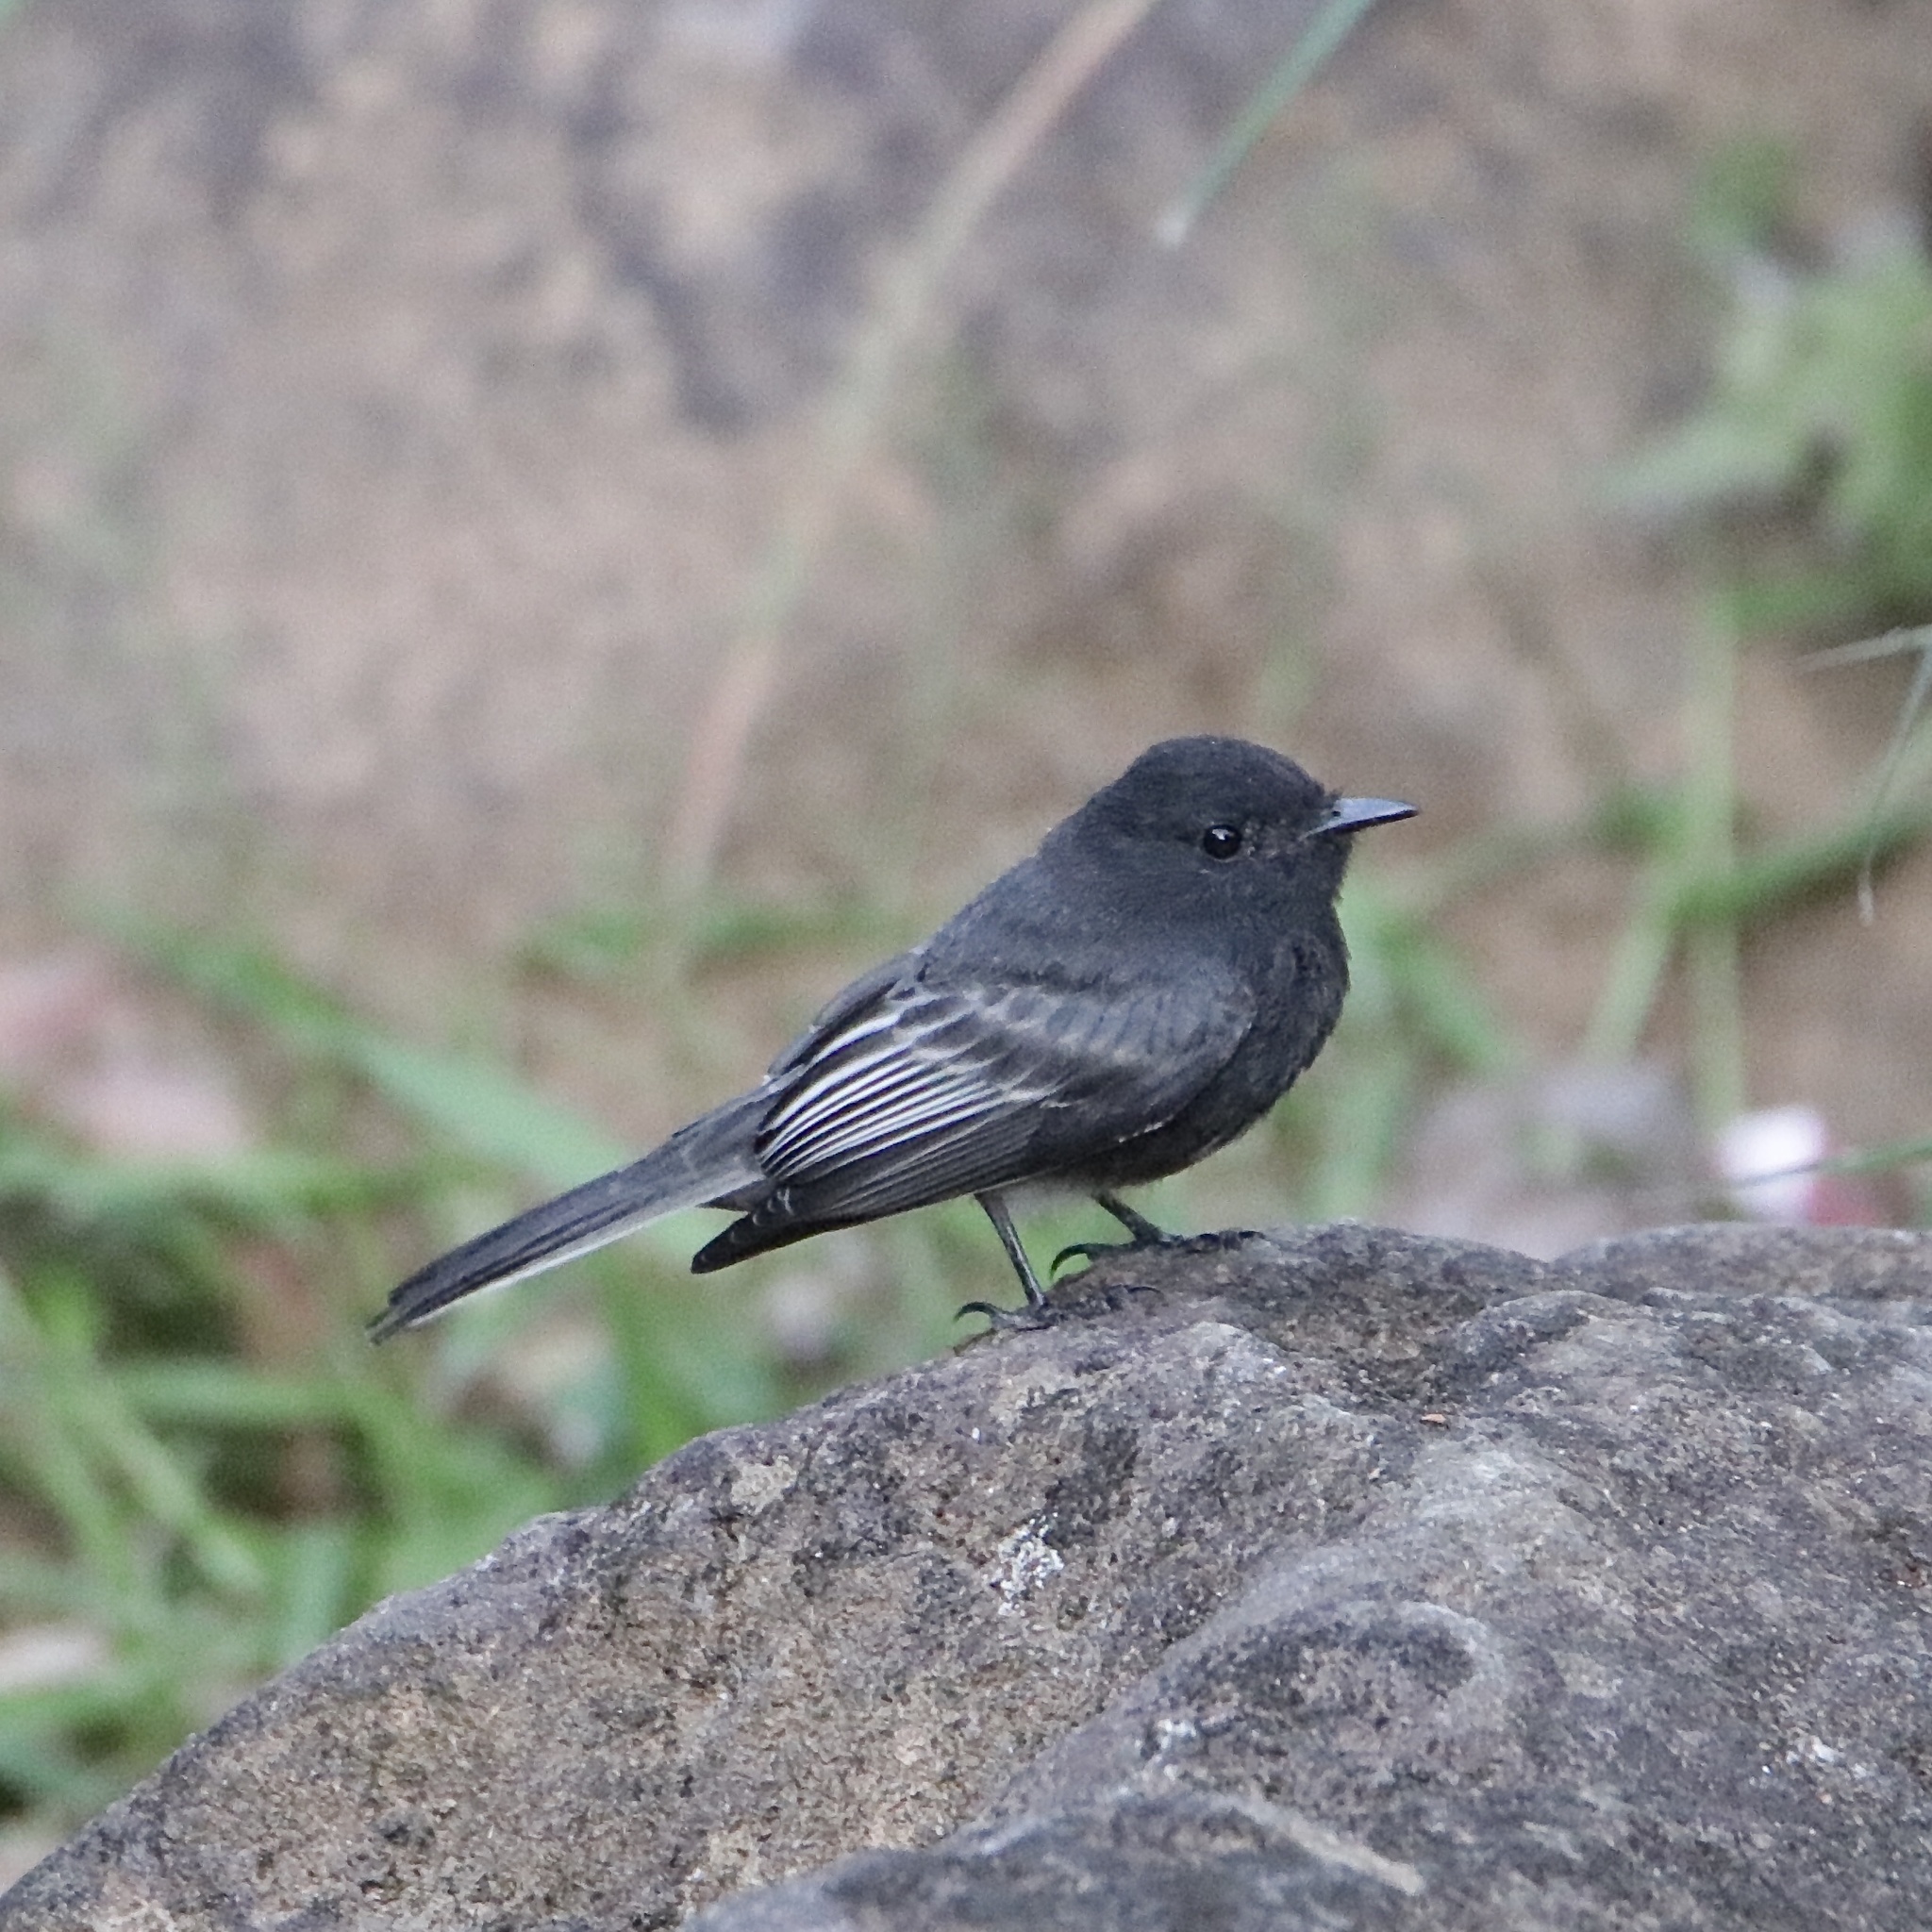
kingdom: Animalia
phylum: Chordata
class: Aves
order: Passeriformes
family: Tyrannidae
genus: Sayornis
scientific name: Sayornis nigricans
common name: Black phoebe
